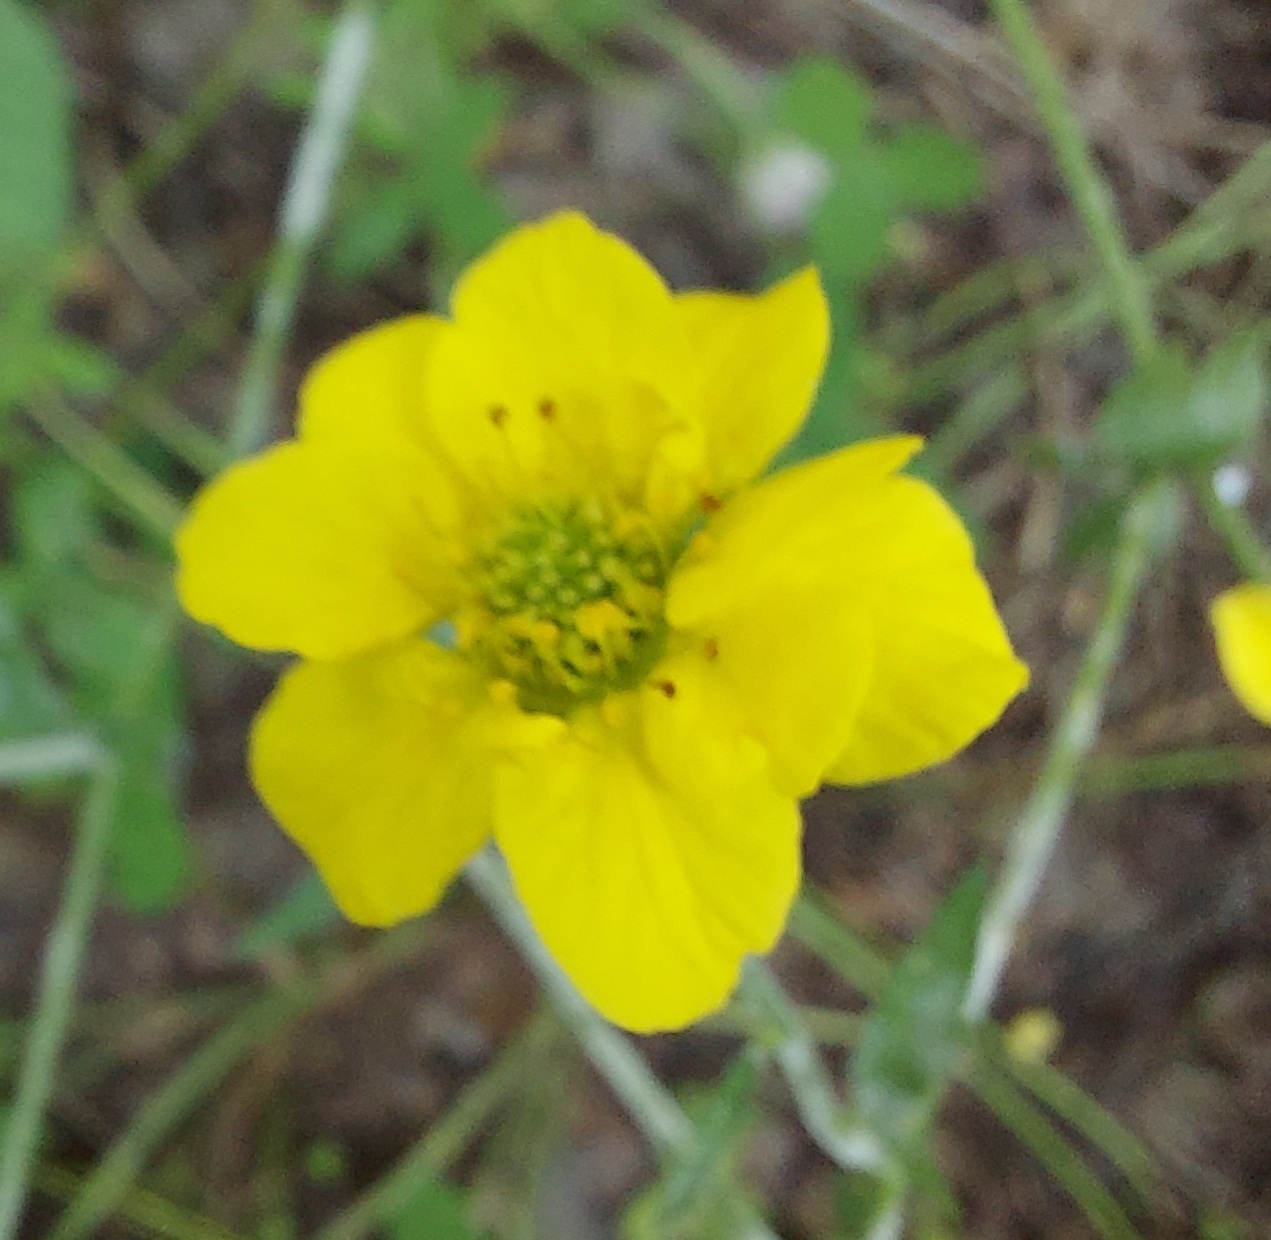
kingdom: Plantae
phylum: Tracheophyta
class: Magnoliopsida
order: Rosales
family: Rosaceae
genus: Geum
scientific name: Geum aleppicum
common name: Yellow avens
